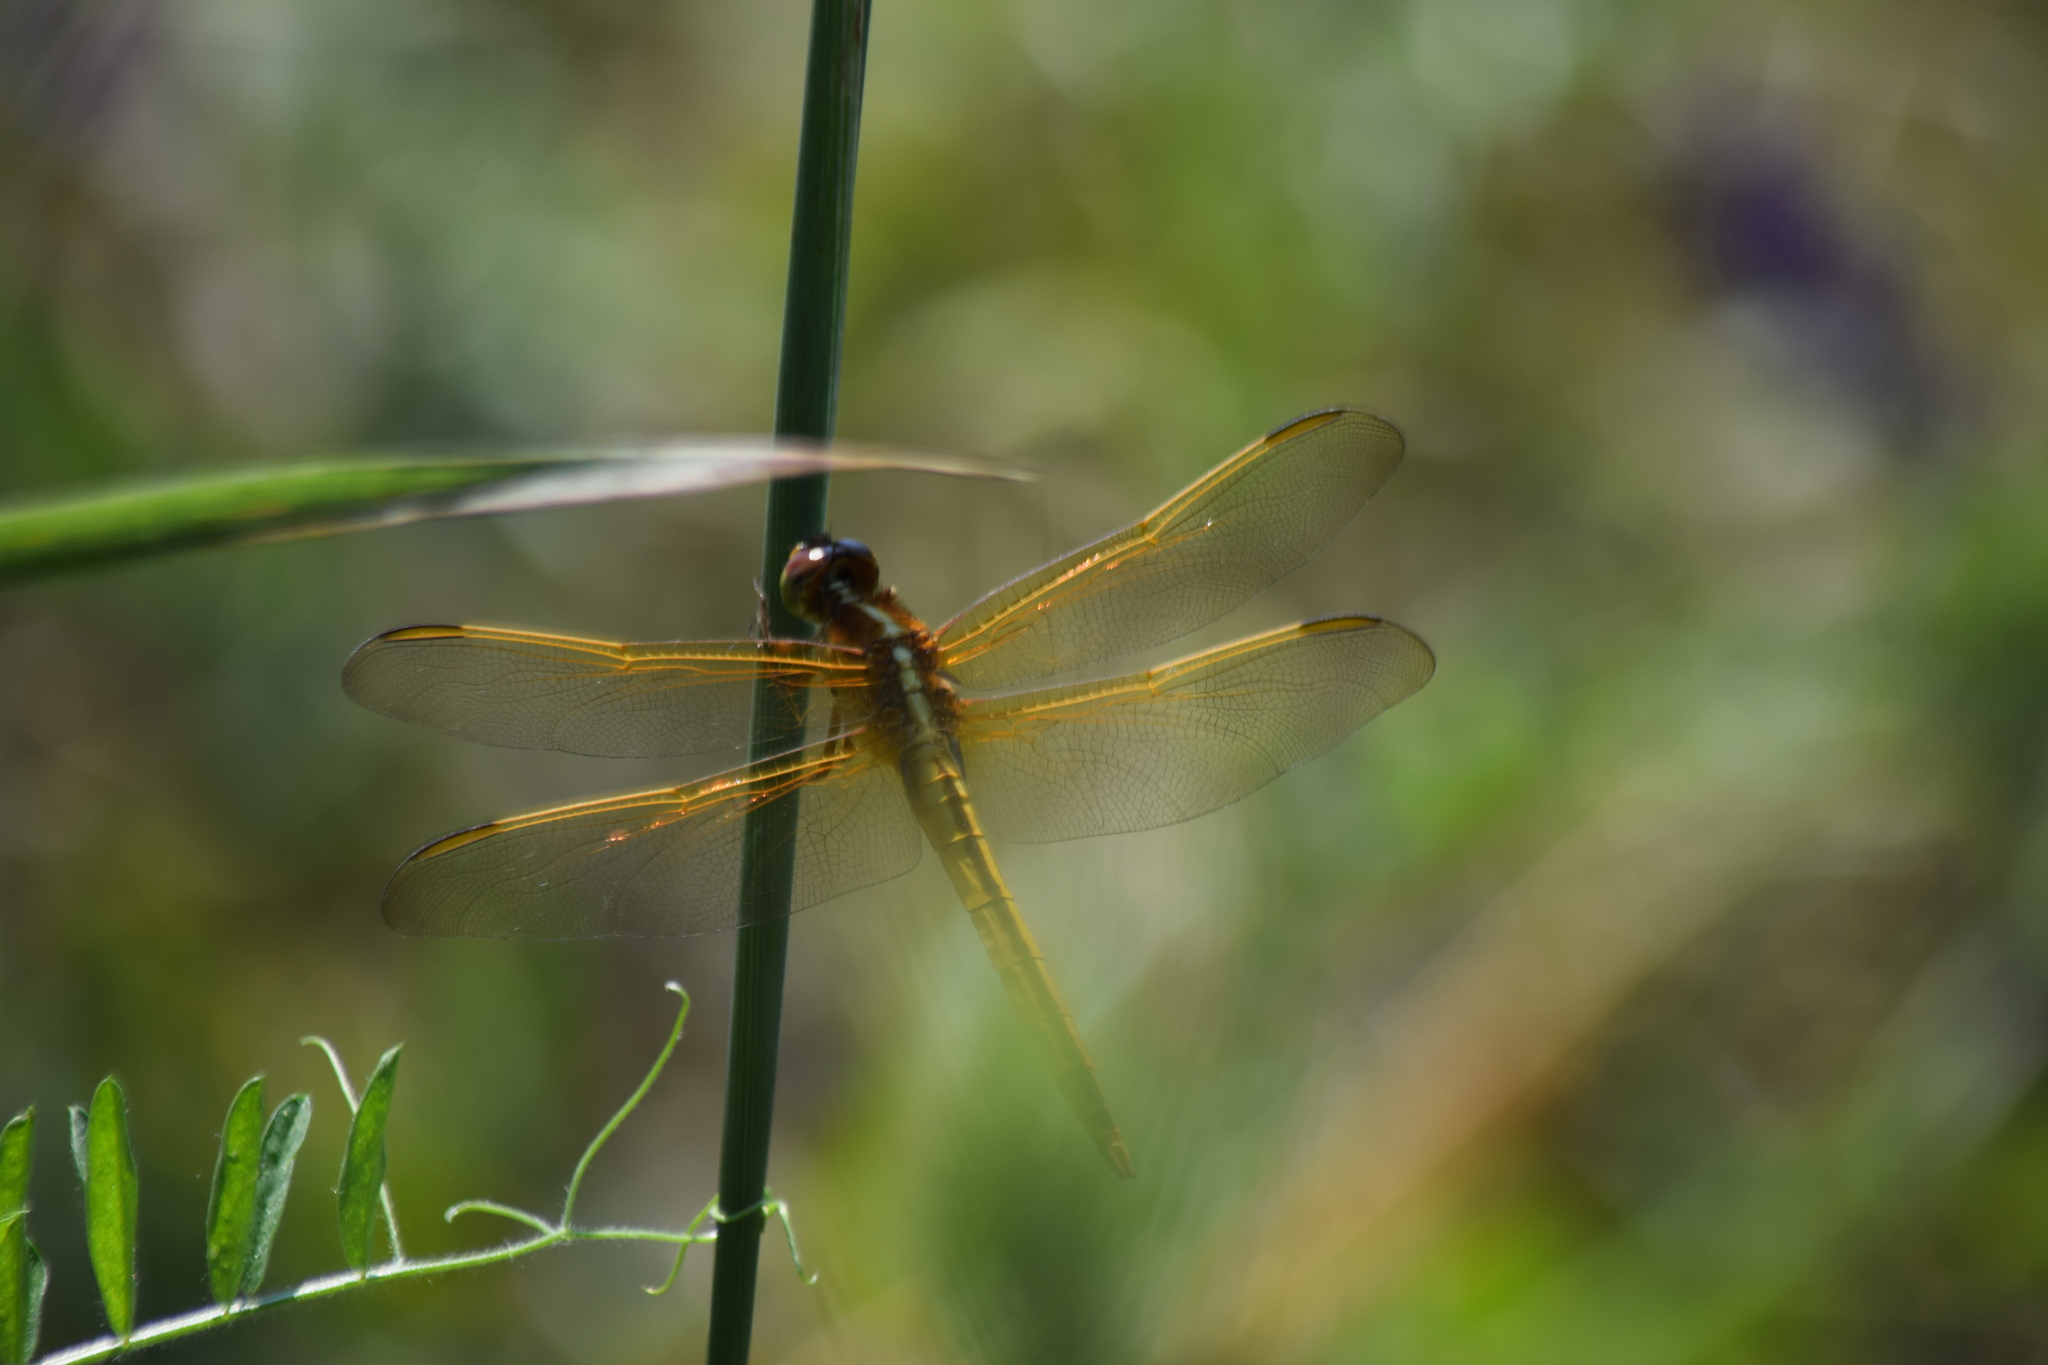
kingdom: Animalia
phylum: Arthropoda
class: Insecta
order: Odonata
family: Libellulidae
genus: Libellula
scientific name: Libellula needhami
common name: Needham's skimmer
